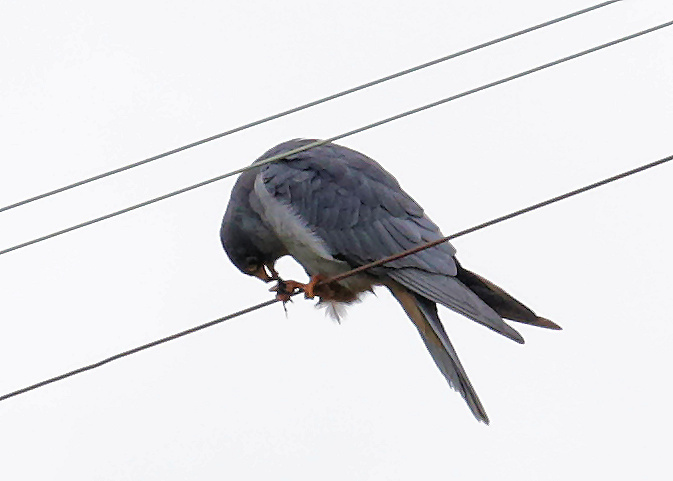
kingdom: Animalia
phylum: Chordata
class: Aves
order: Falconiformes
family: Falconidae
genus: Falco
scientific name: Falco amurensis
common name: Amur falcon
